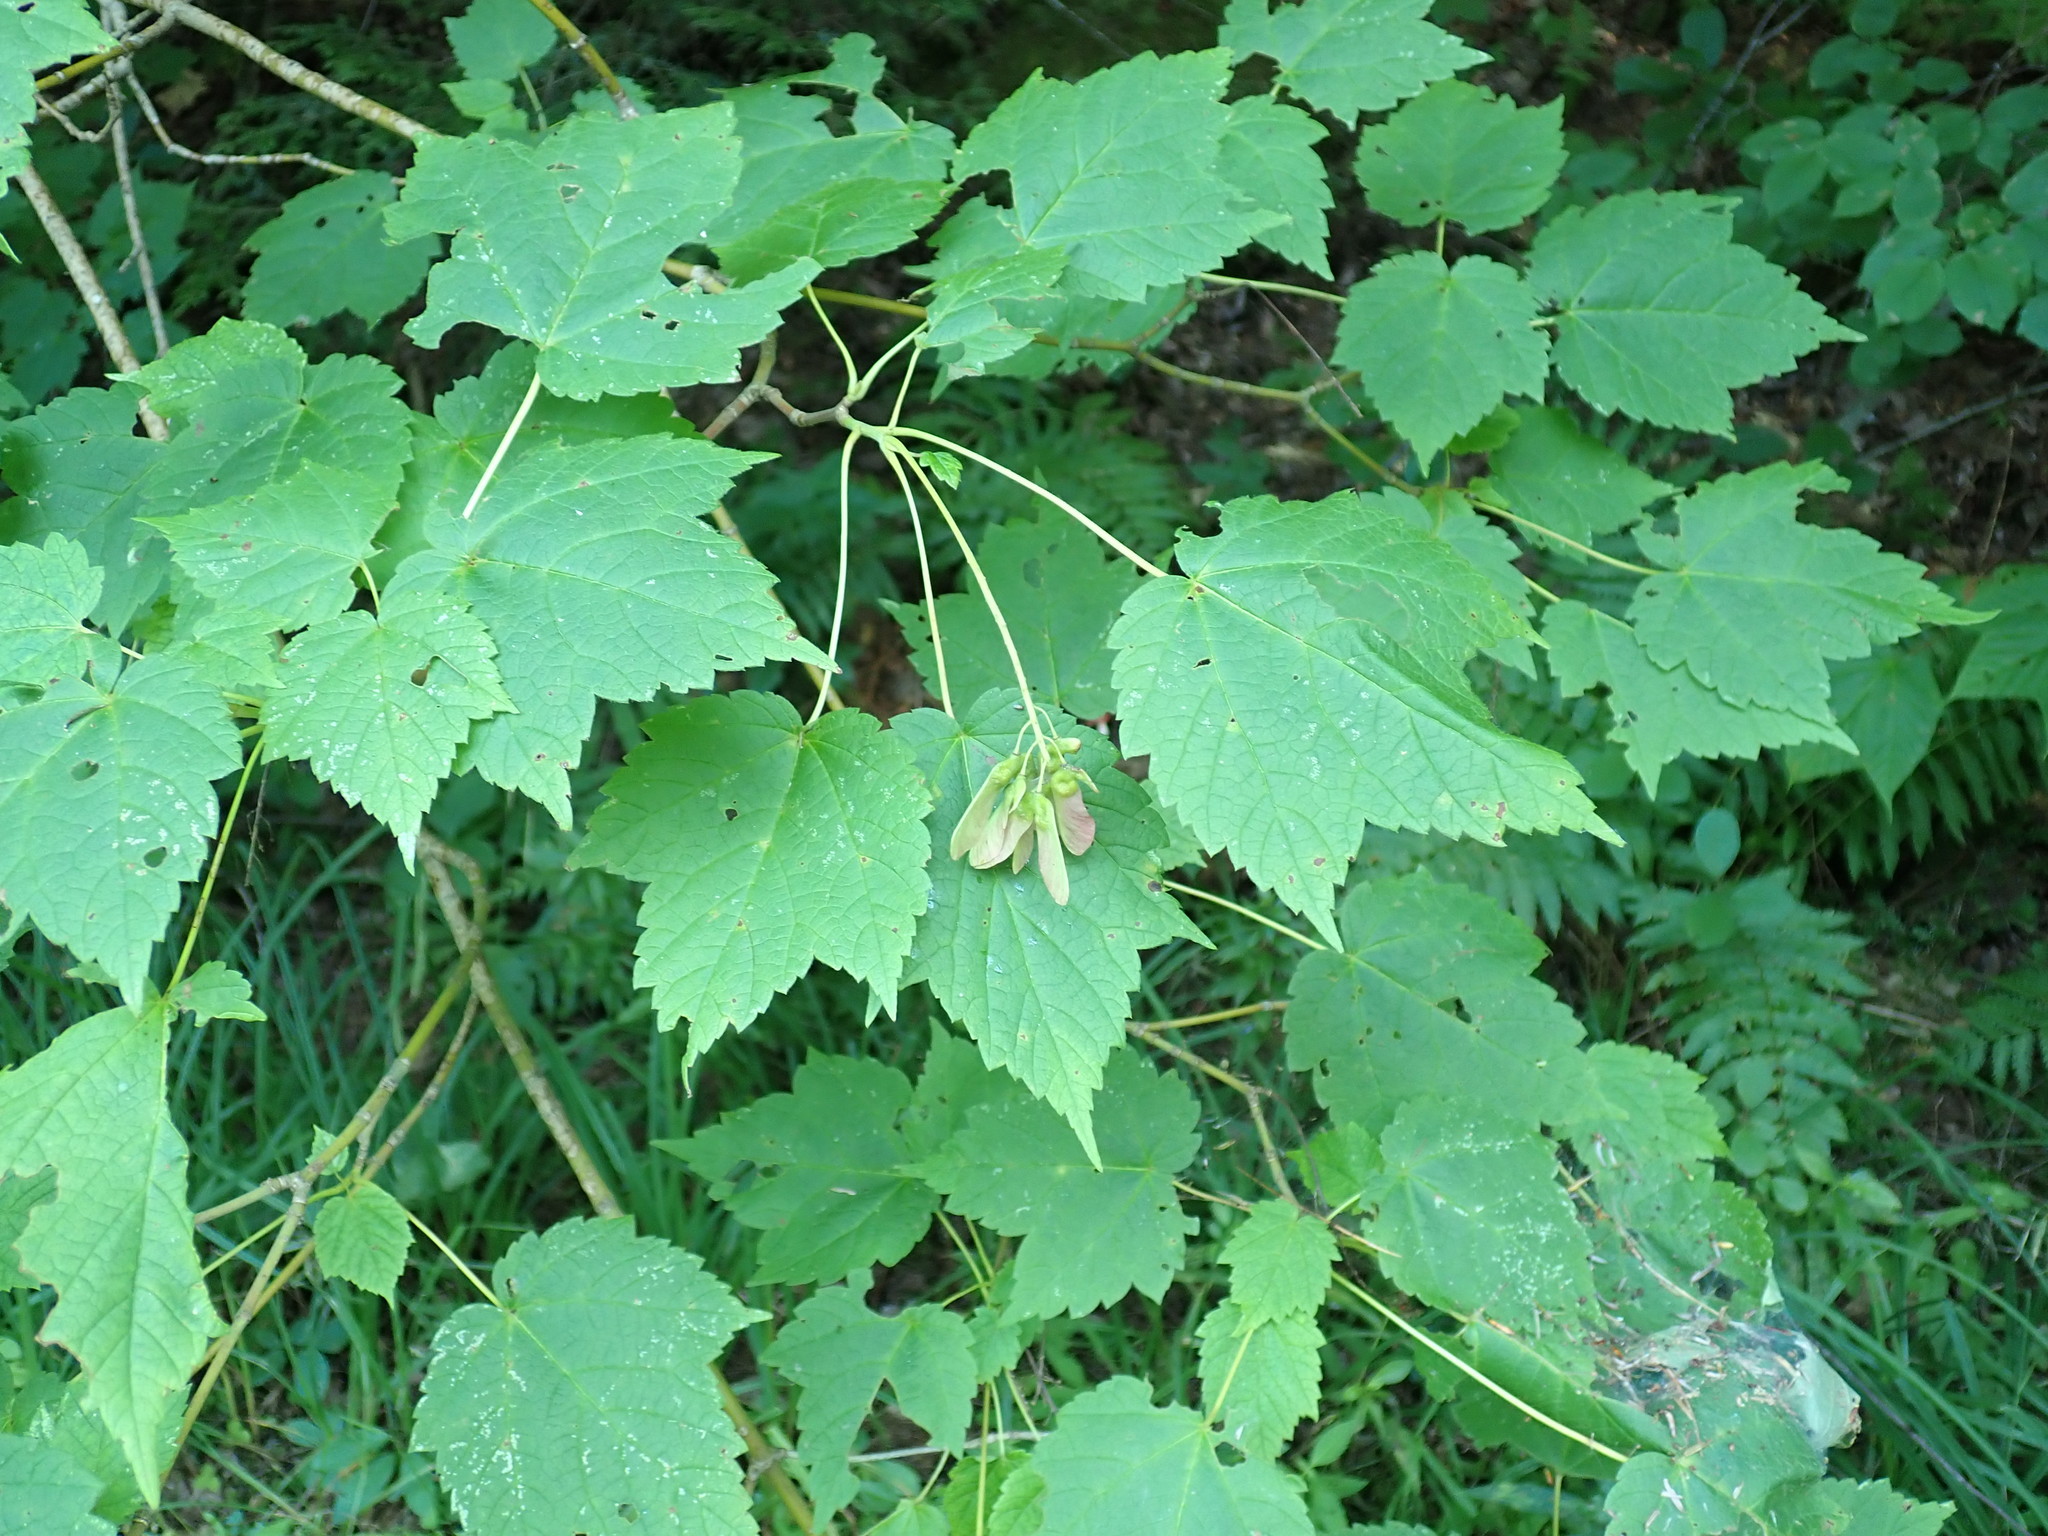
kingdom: Plantae
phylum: Tracheophyta
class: Magnoliopsida
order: Sapindales
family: Sapindaceae
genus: Acer
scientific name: Acer spicatum
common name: Mountain maple
